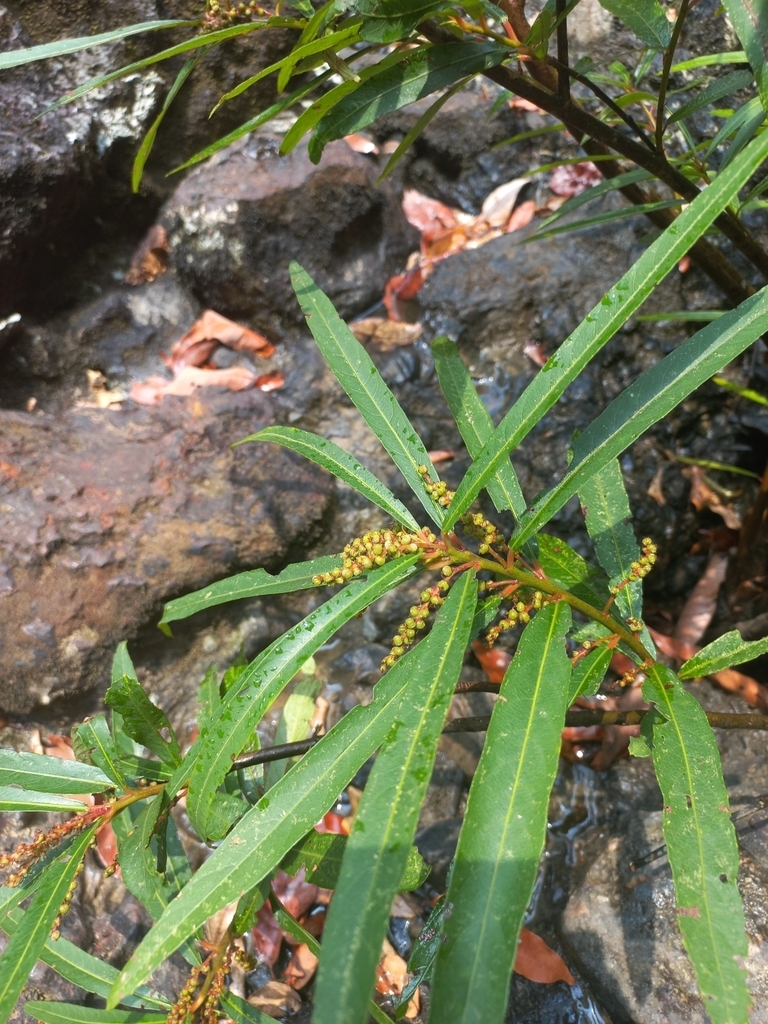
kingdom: Plantae
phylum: Tracheophyta
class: Magnoliopsida
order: Malpighiales
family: Euphorbiaceae
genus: Homonoia
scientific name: Homonoia riparia
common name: Willow-leaved water croton
